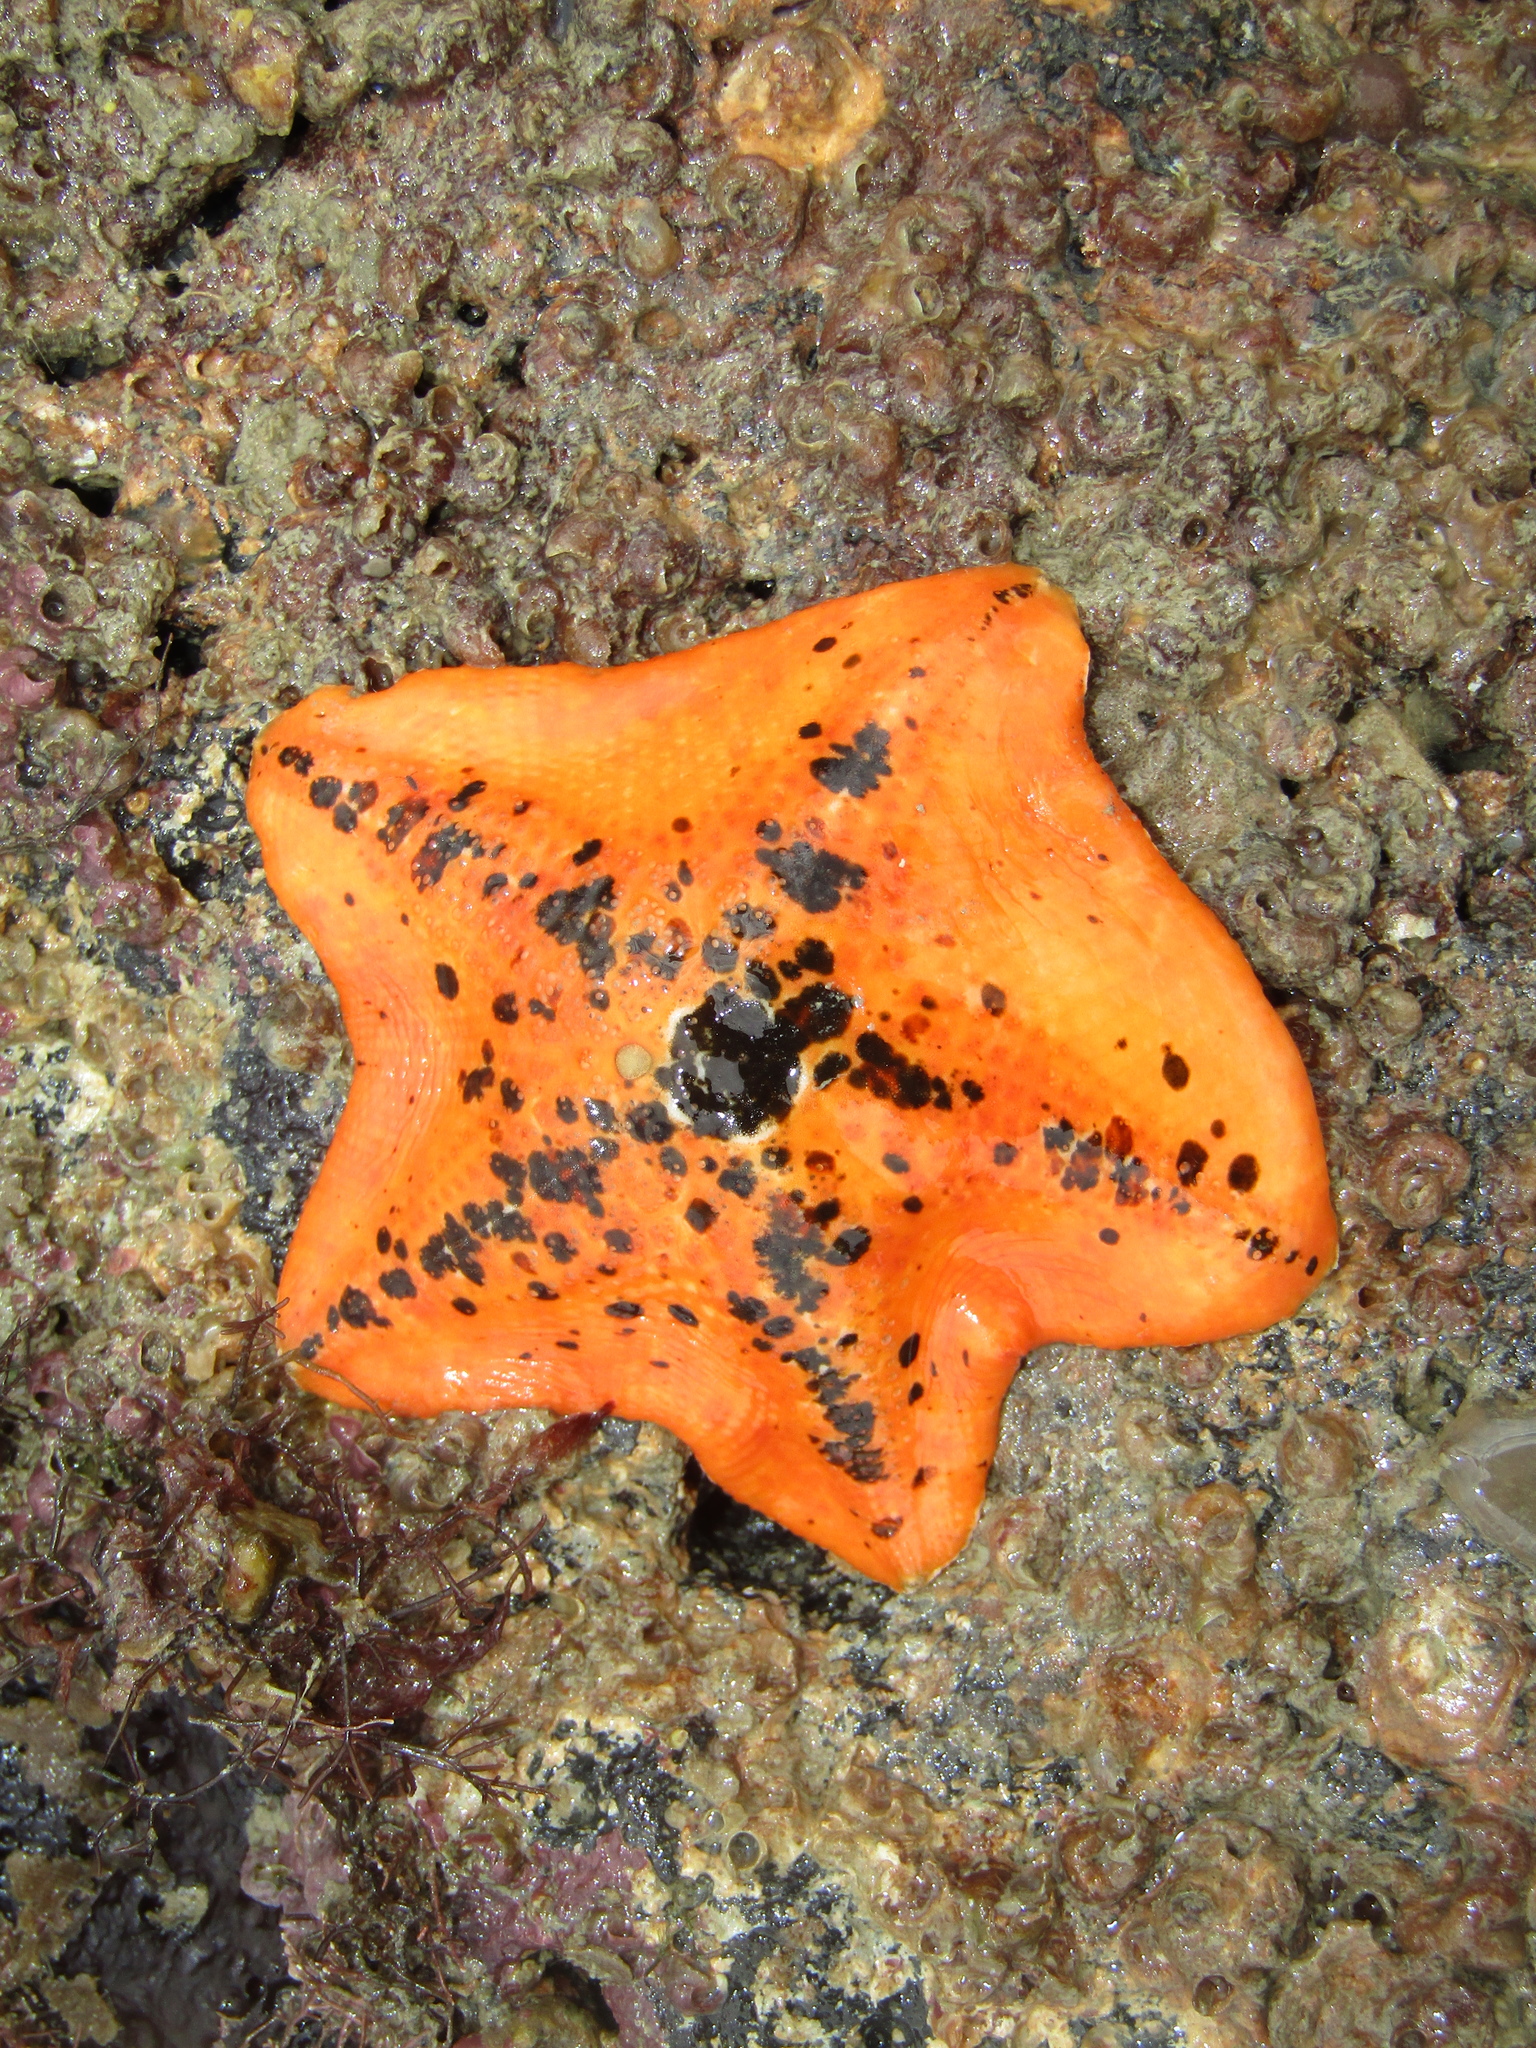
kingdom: Animalia
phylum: Echinodermata
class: Asteroidea
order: Valvatida
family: Asterinidae
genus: Stegnaster
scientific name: Stegnaster inflatus
